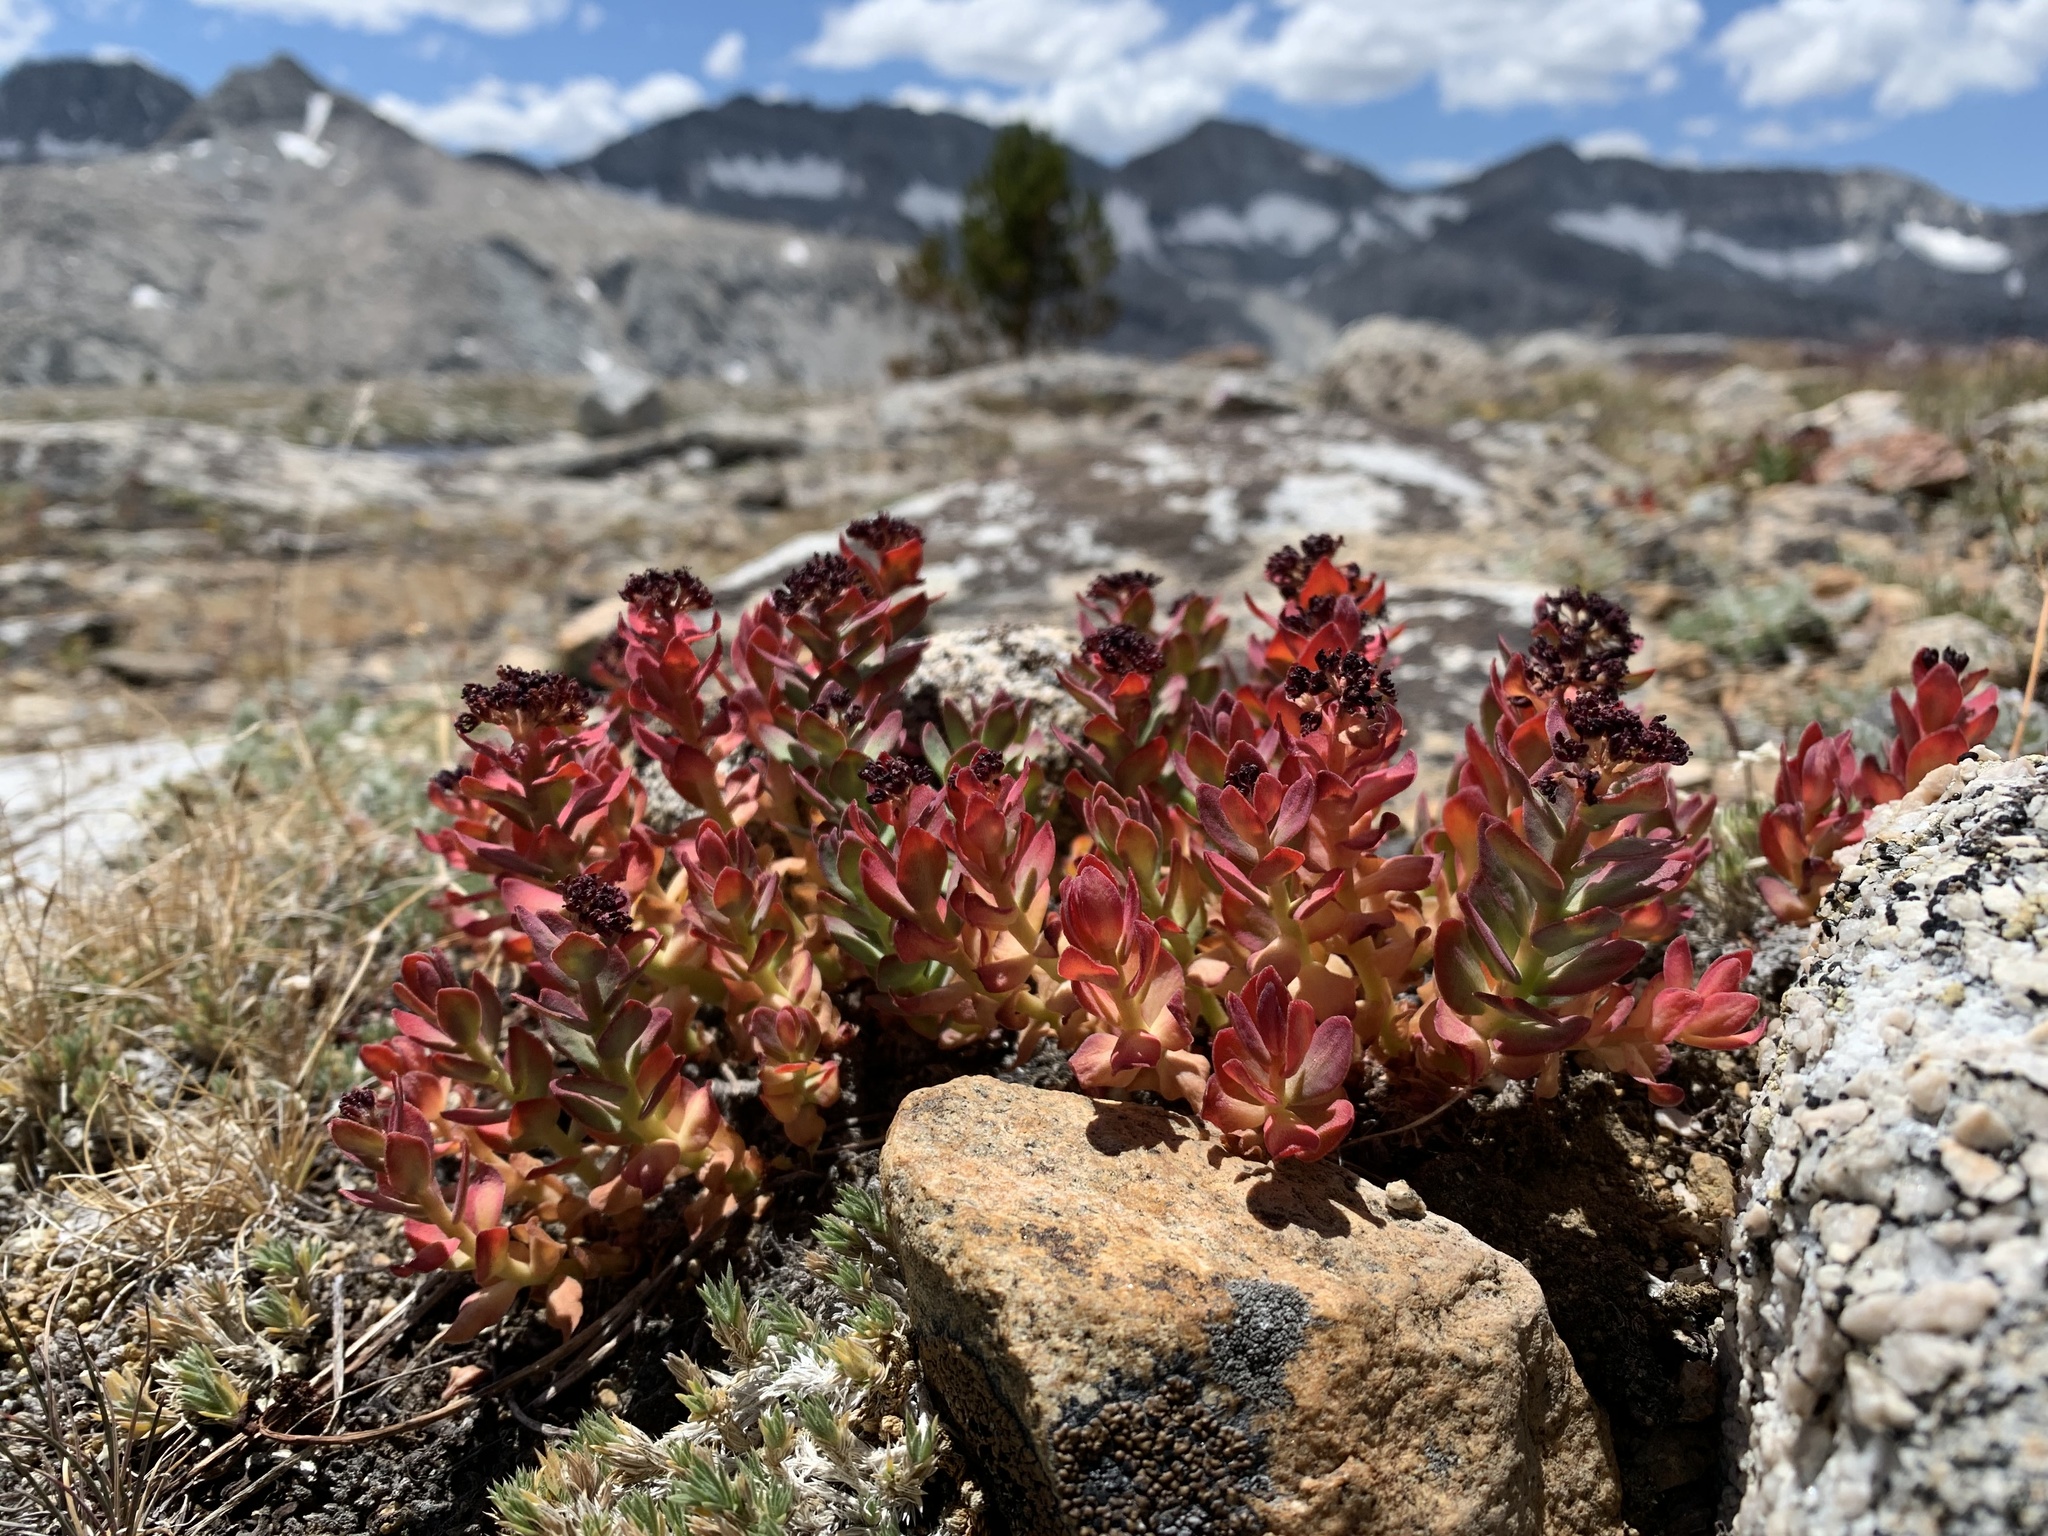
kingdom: Plantae
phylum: Tracheophyta
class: Magnoliopsida
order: Saxifragales
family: Crassulaceae
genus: Rhodiola
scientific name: Rhodiola integrifolia
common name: Western roseroot
